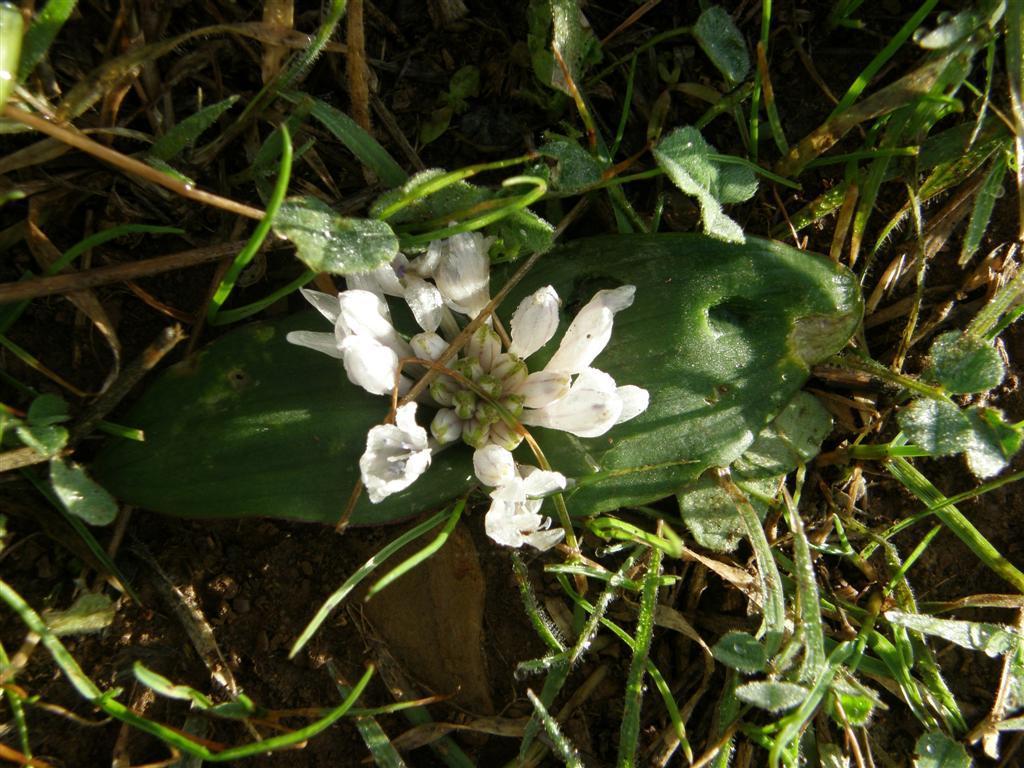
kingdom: Plantae
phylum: Tracheophyta
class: Liliopsida
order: Asparagales
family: Asparagaceae
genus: Lachenalia
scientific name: Lachenalia ensifolia
